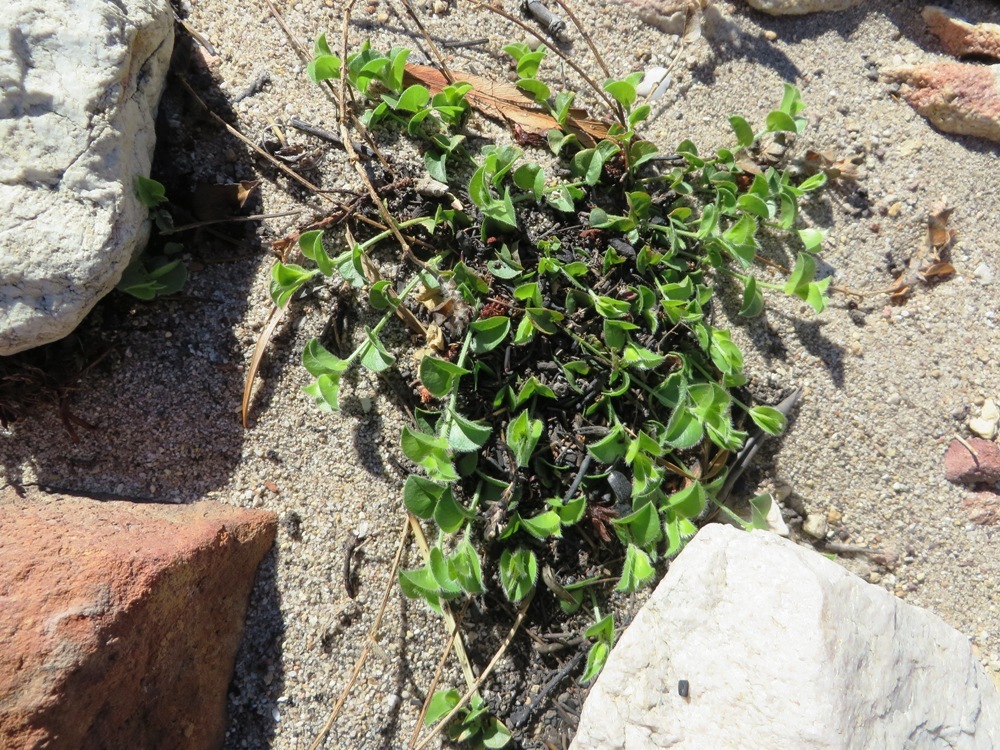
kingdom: Plantae
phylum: Tracheophyta
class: Magnoliopsida
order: Fabales
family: Fabaceae
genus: Psoralea
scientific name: Psoralea imbricata
